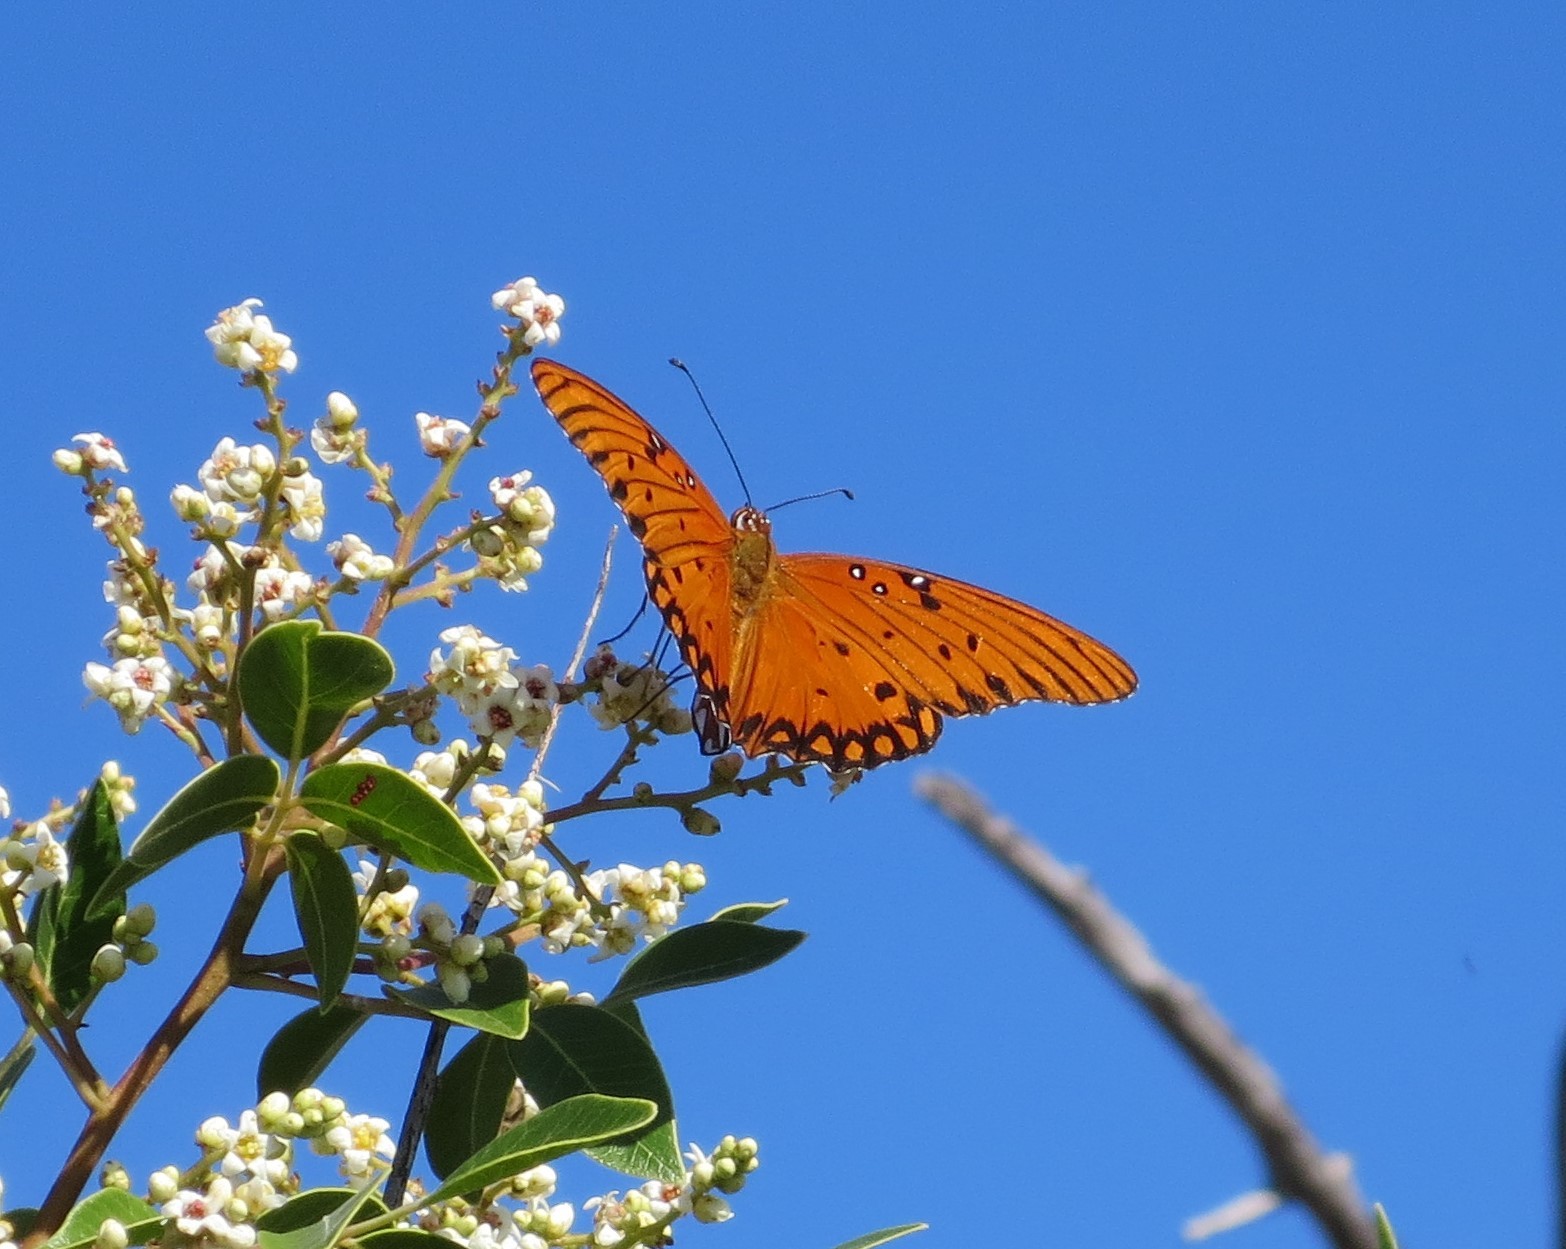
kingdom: Animalia
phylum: Arthropoda
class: Insecta
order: Lepidoptera
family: Nymphalidae
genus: Dione
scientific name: Dione vanillae
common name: Gulf fritillary
